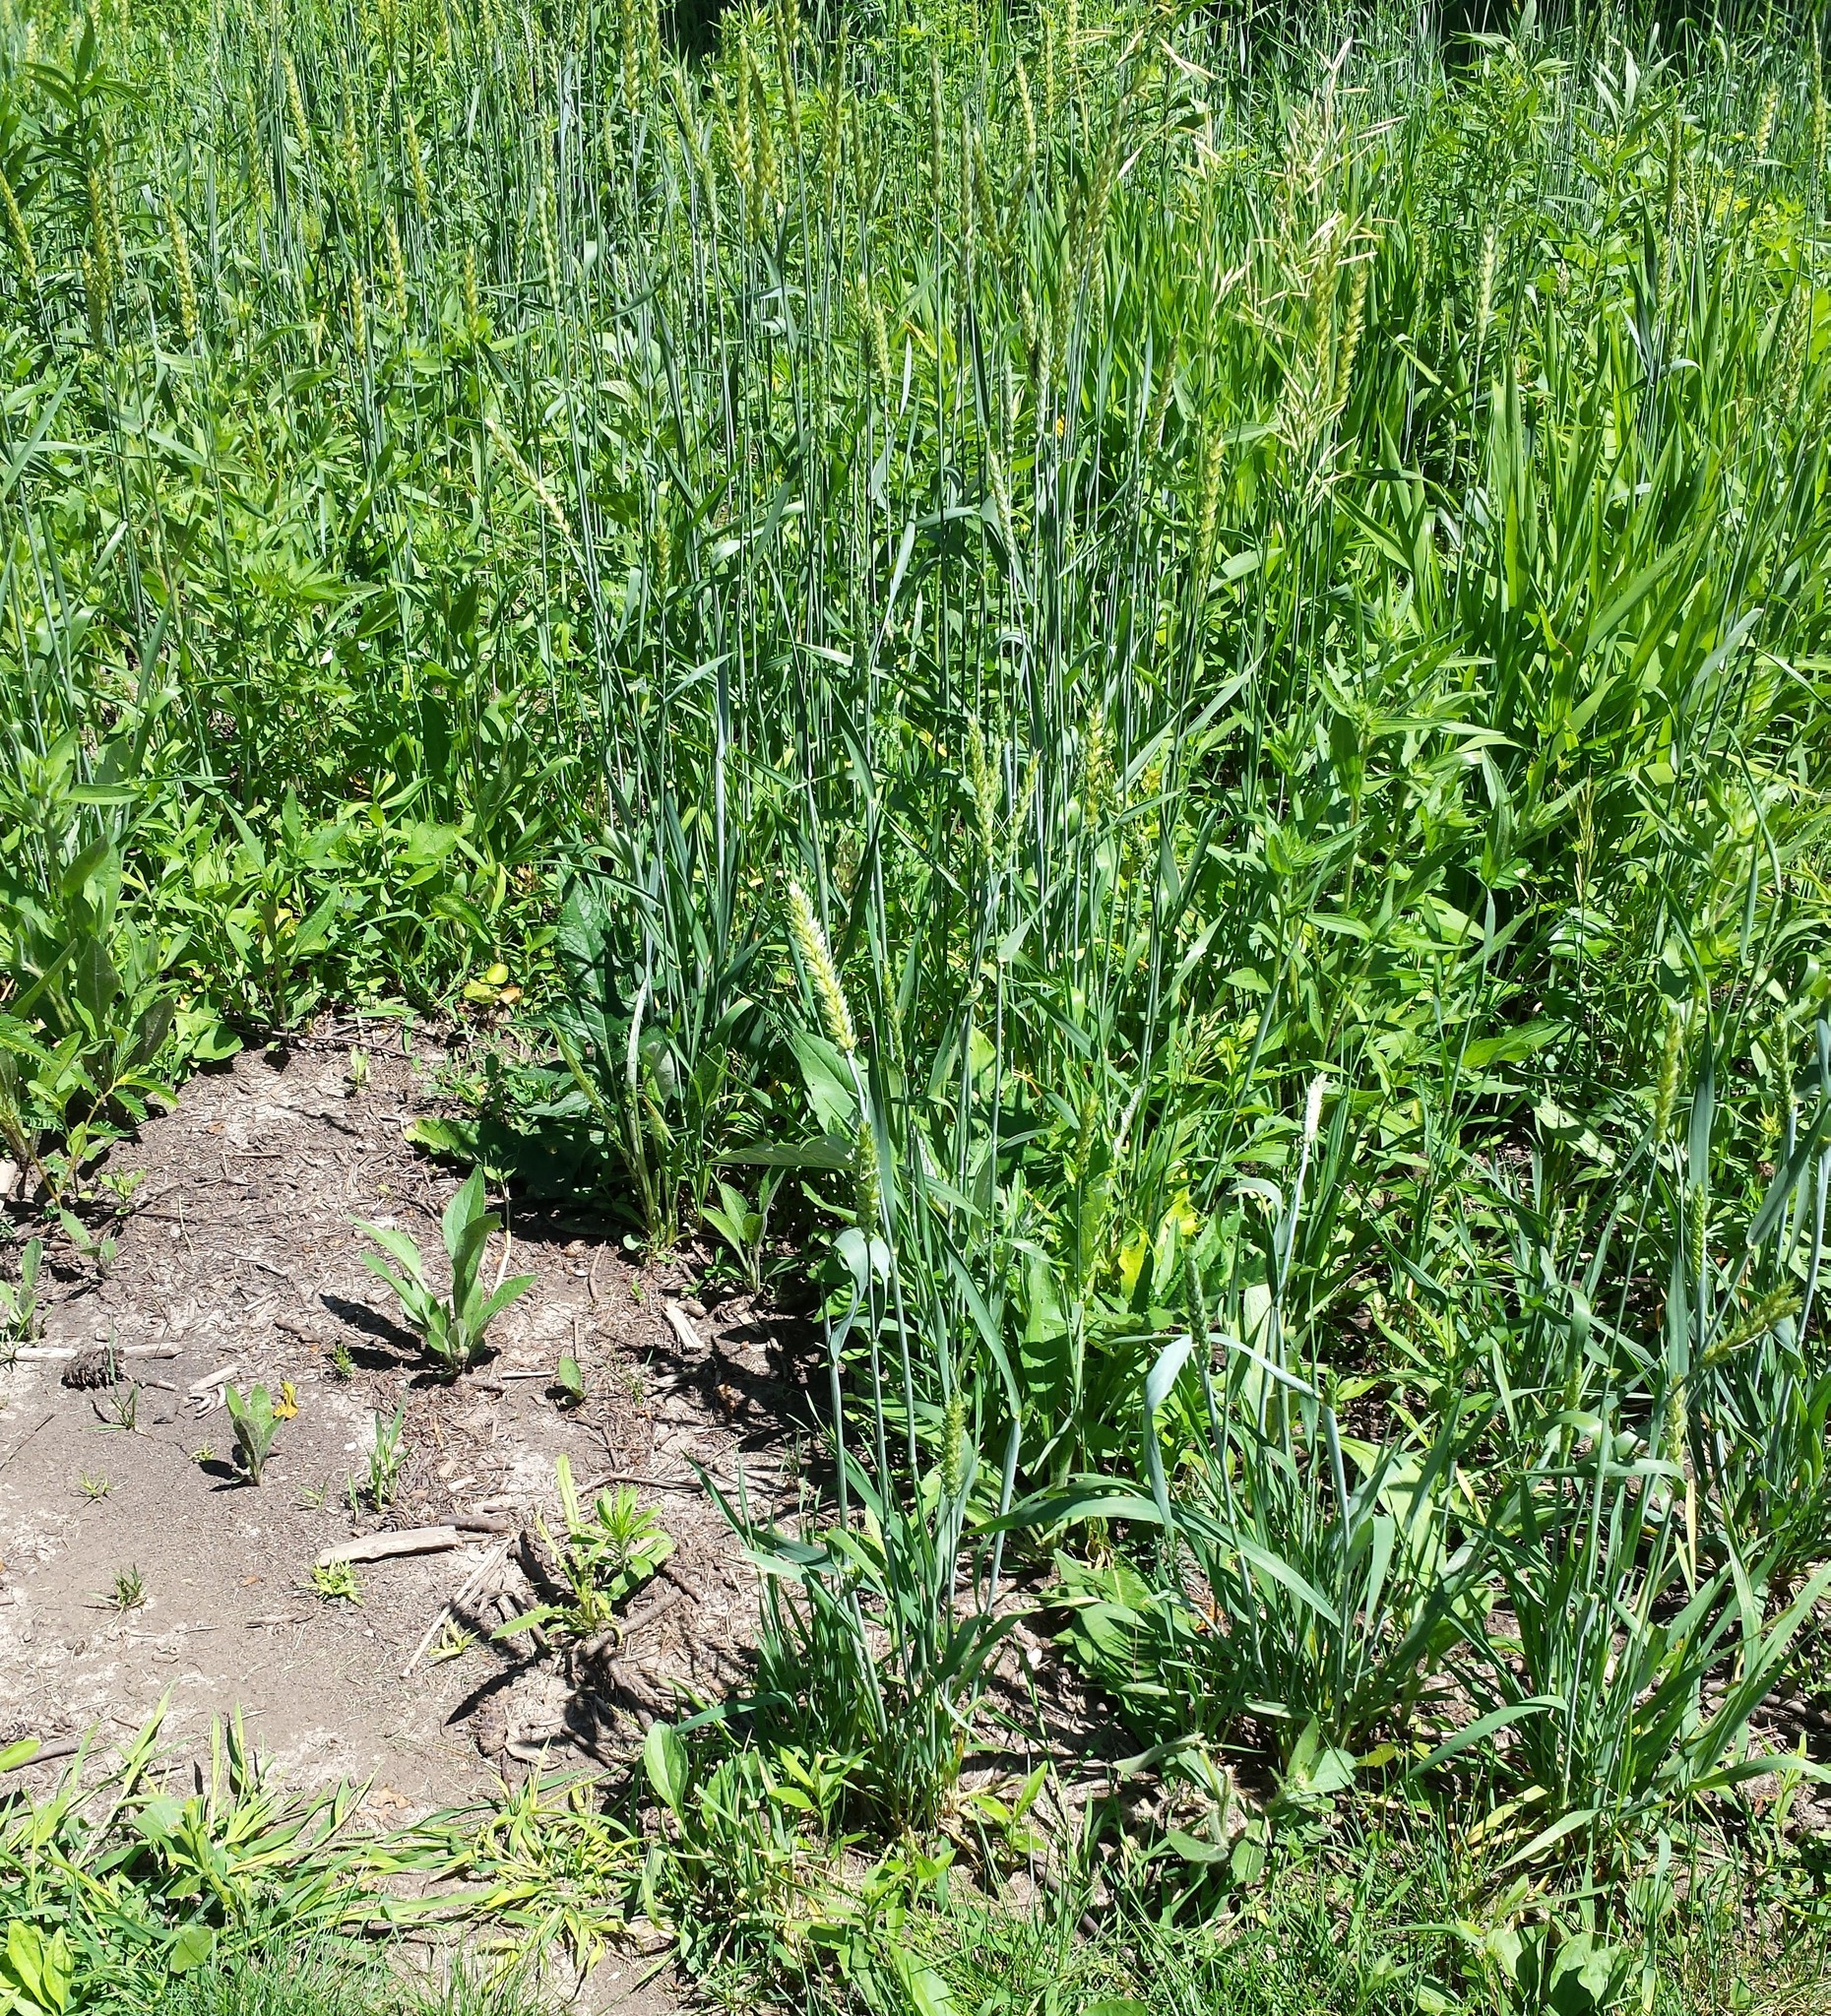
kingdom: Plantae
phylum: Tracheophyta
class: Liliopsida
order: Poales
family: Poaceae
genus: Triticum
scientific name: Triticum aestivum
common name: Common wheat
